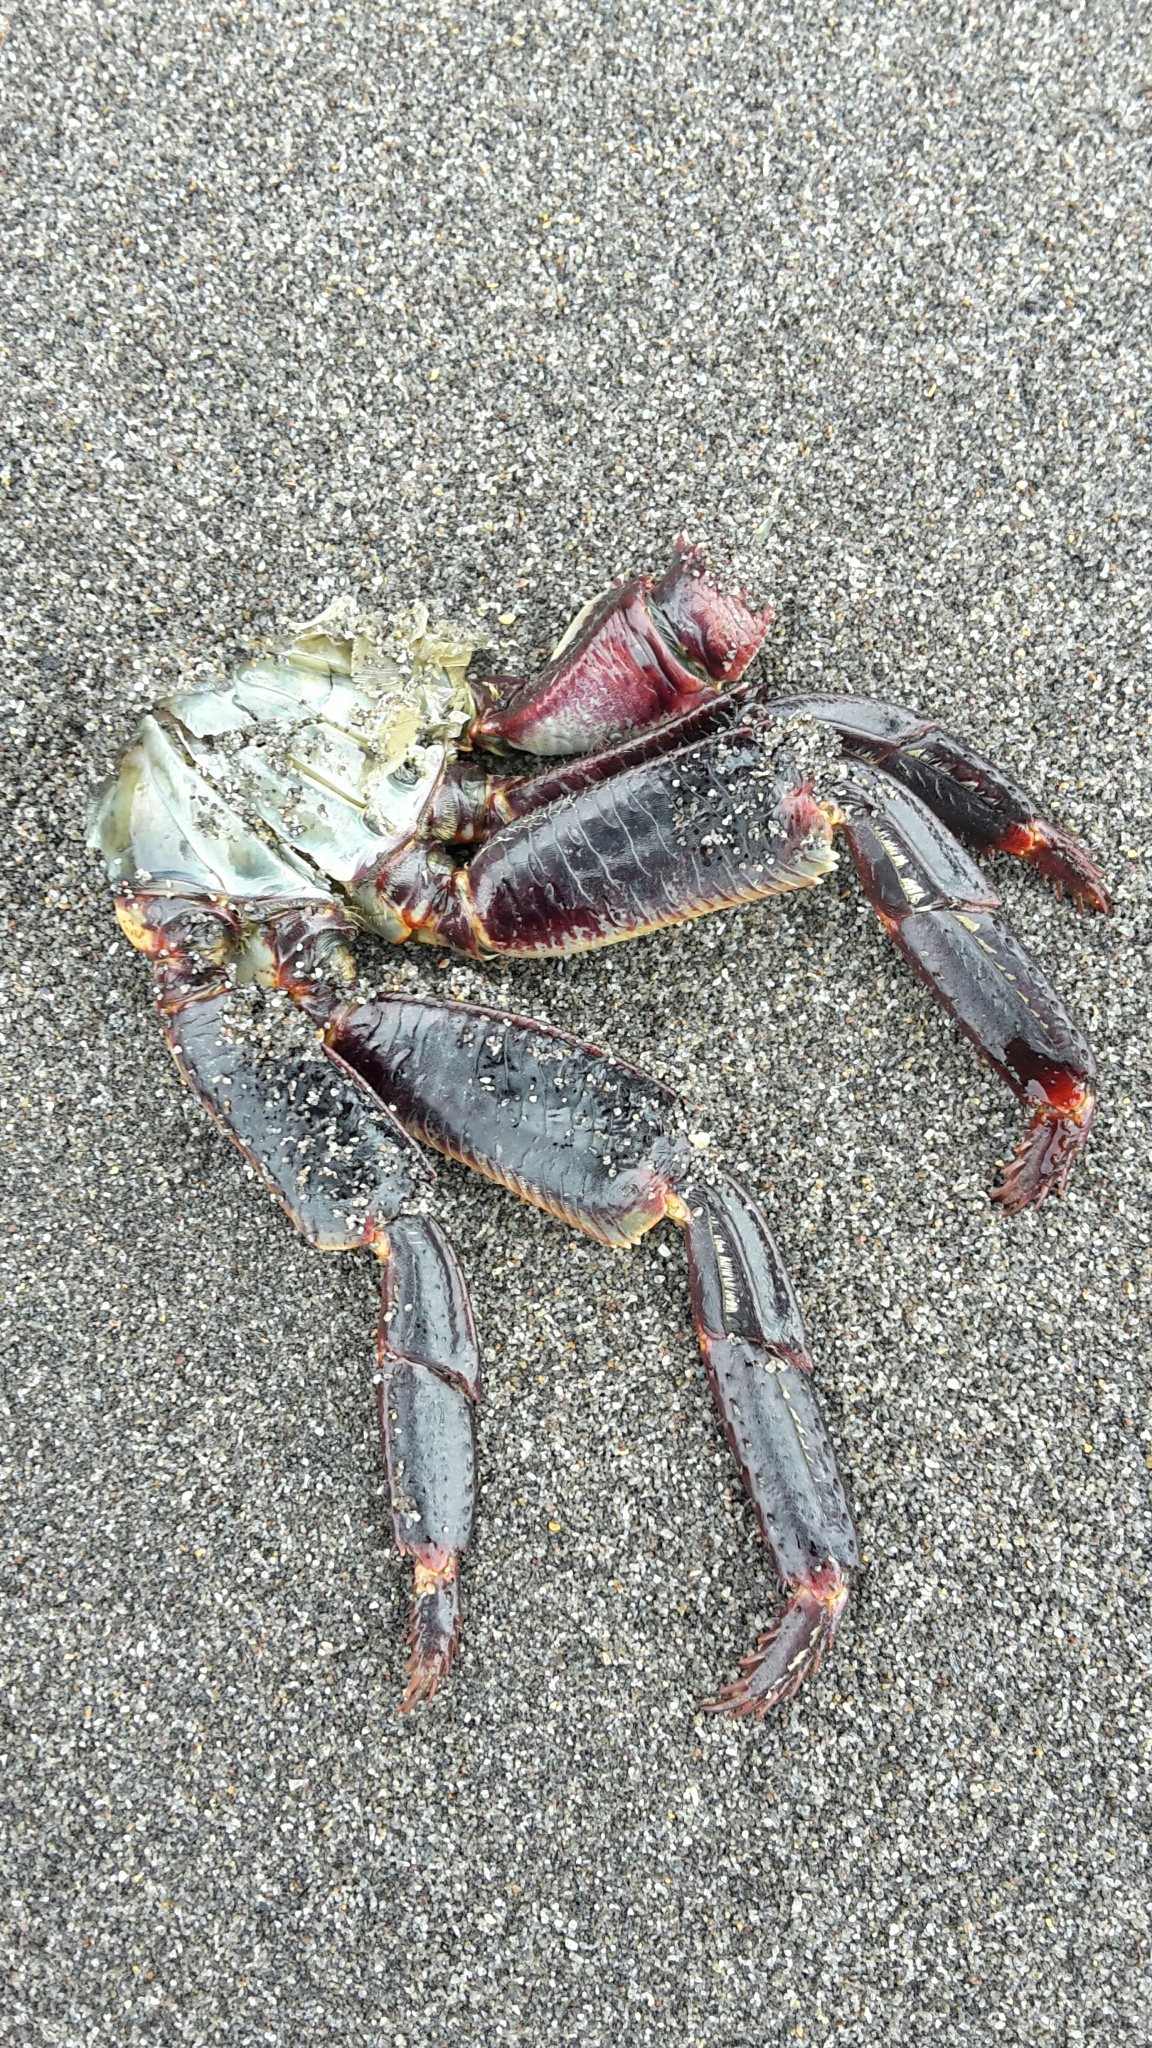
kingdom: Animalia
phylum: Arthropoda
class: Malacostraca
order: Decapoda
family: Grapsidae
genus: Leptograpsus
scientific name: Leptograpsus variegatus
